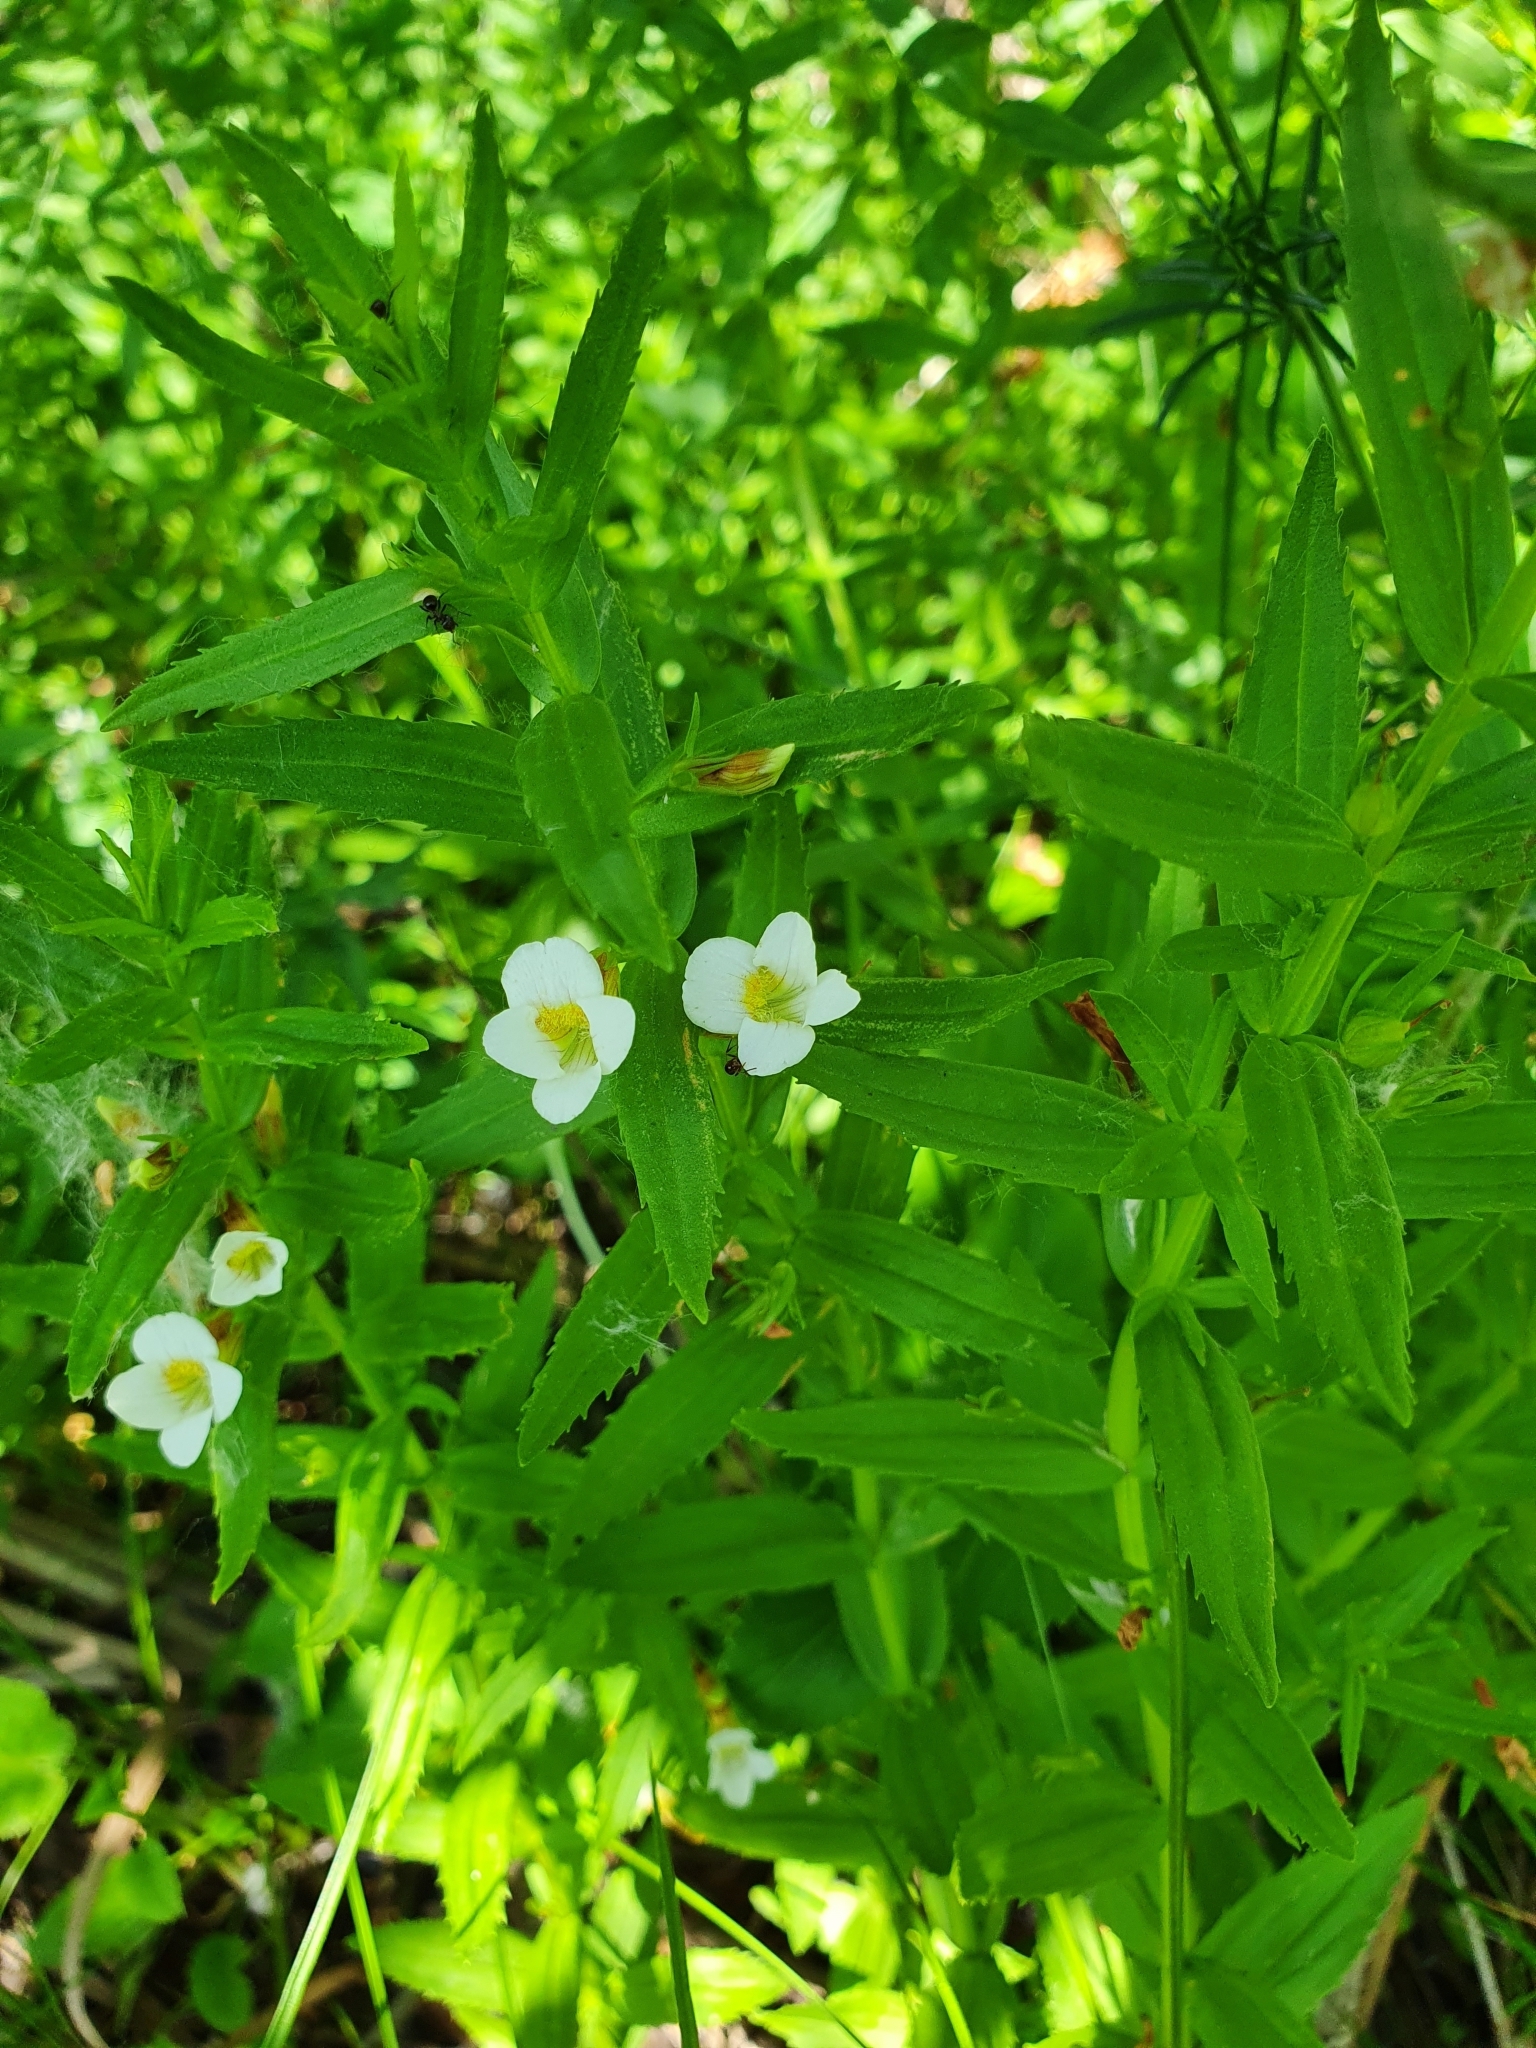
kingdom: Plantae
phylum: Tracheophyta
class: Magnoliopsida
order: Lamiales
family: Plantaginaceae
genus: Gratiola
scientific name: Gratiola officinalis
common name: Gratiola
